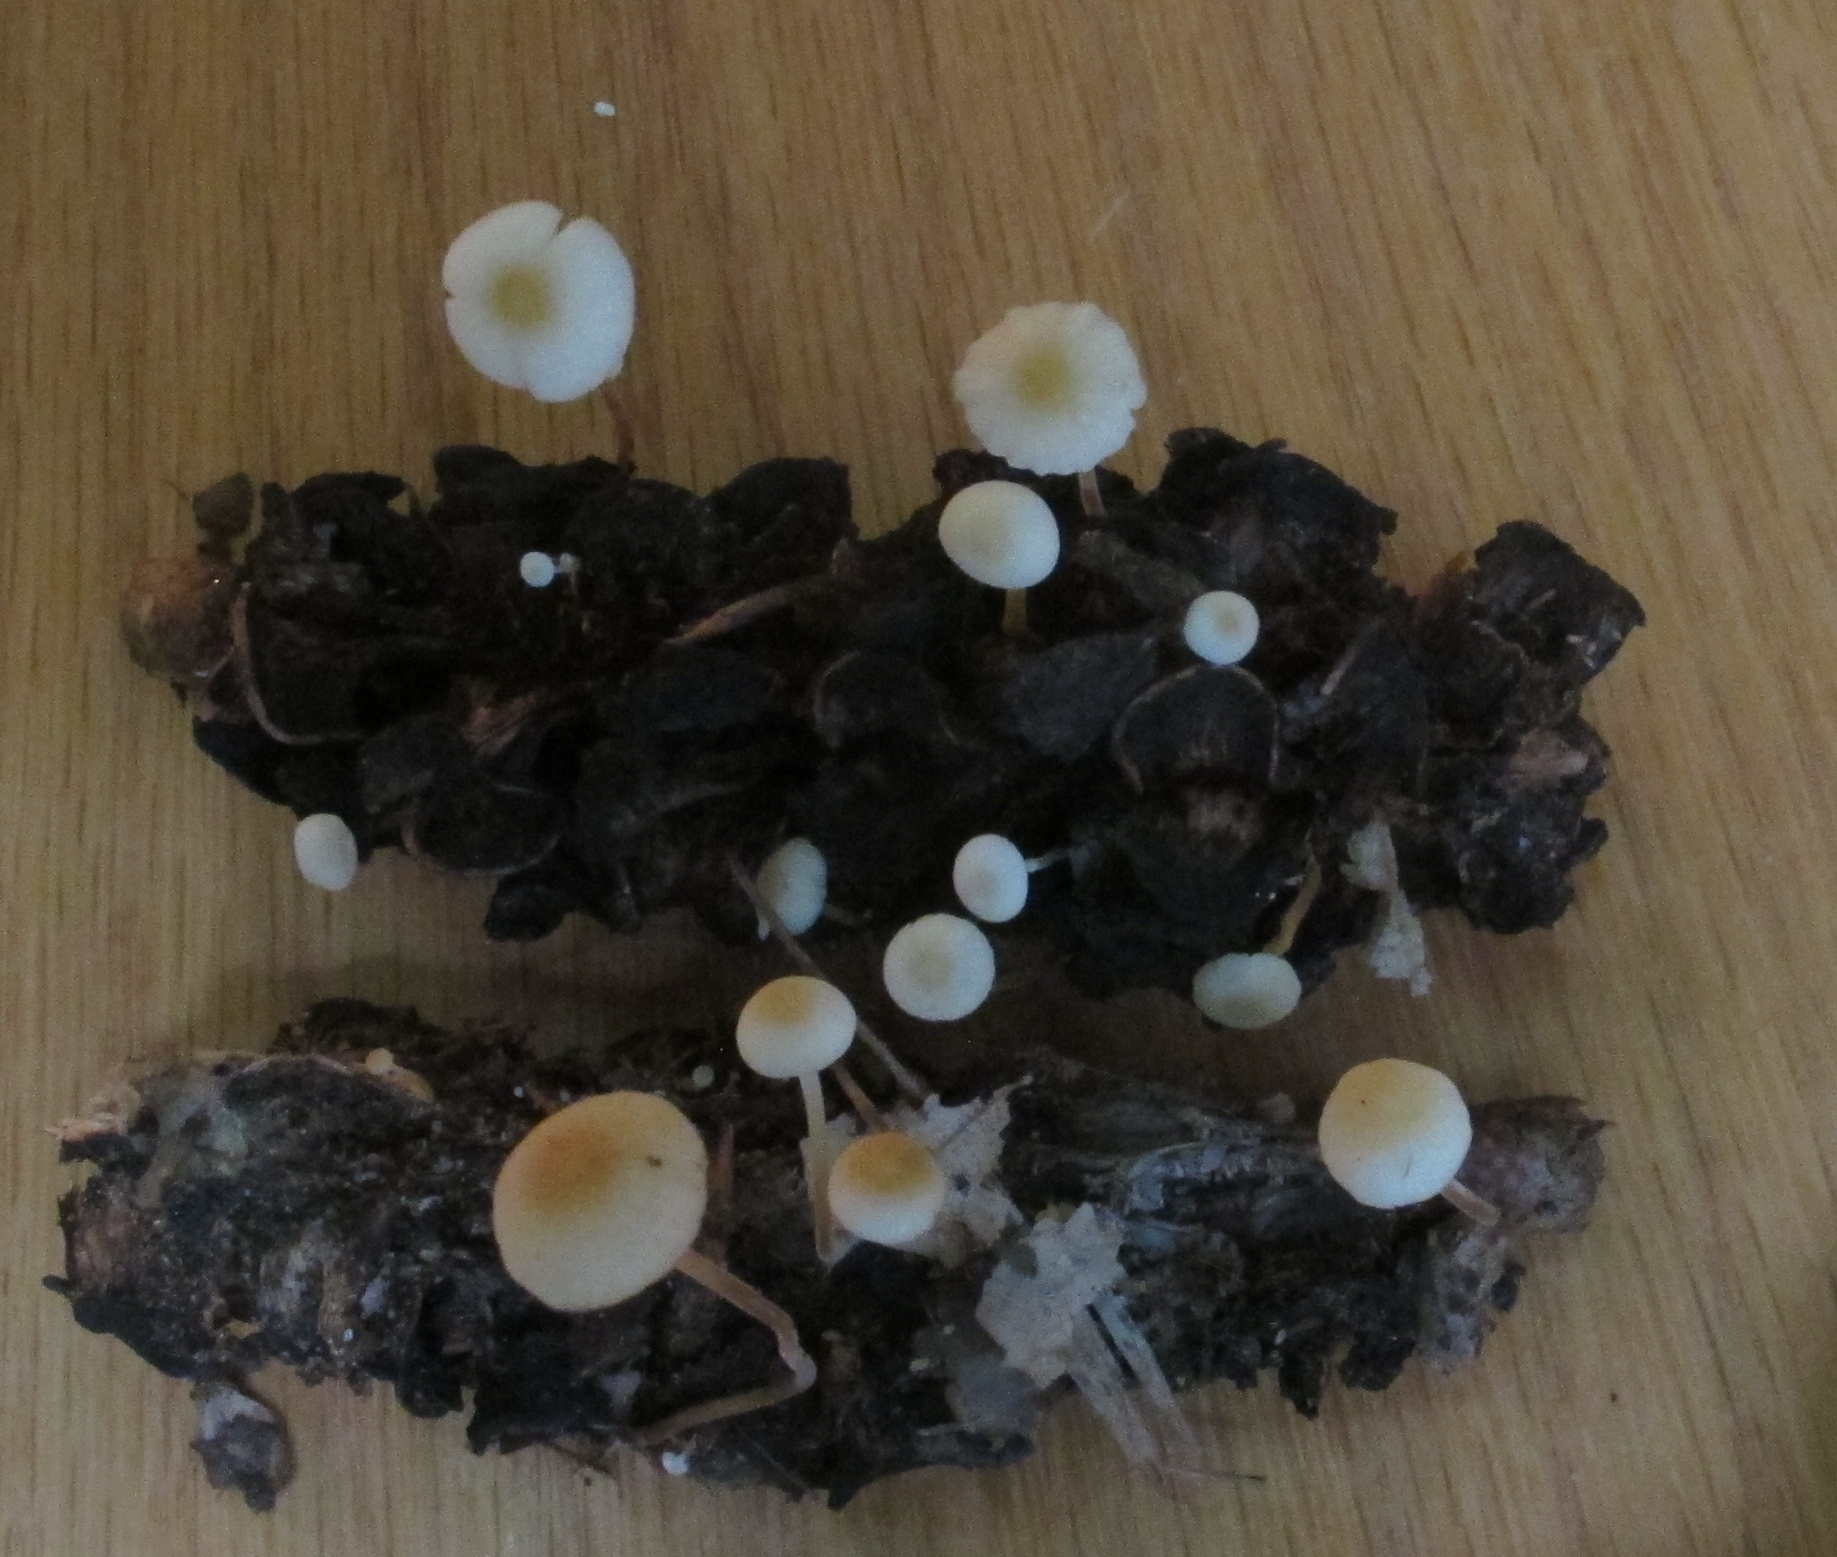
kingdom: Fungi
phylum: Basidiomycota
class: Agaricomycetes
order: Agaricales
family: Physalacriaceae
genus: Strobilurus
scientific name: Strobilurus conigenoides
